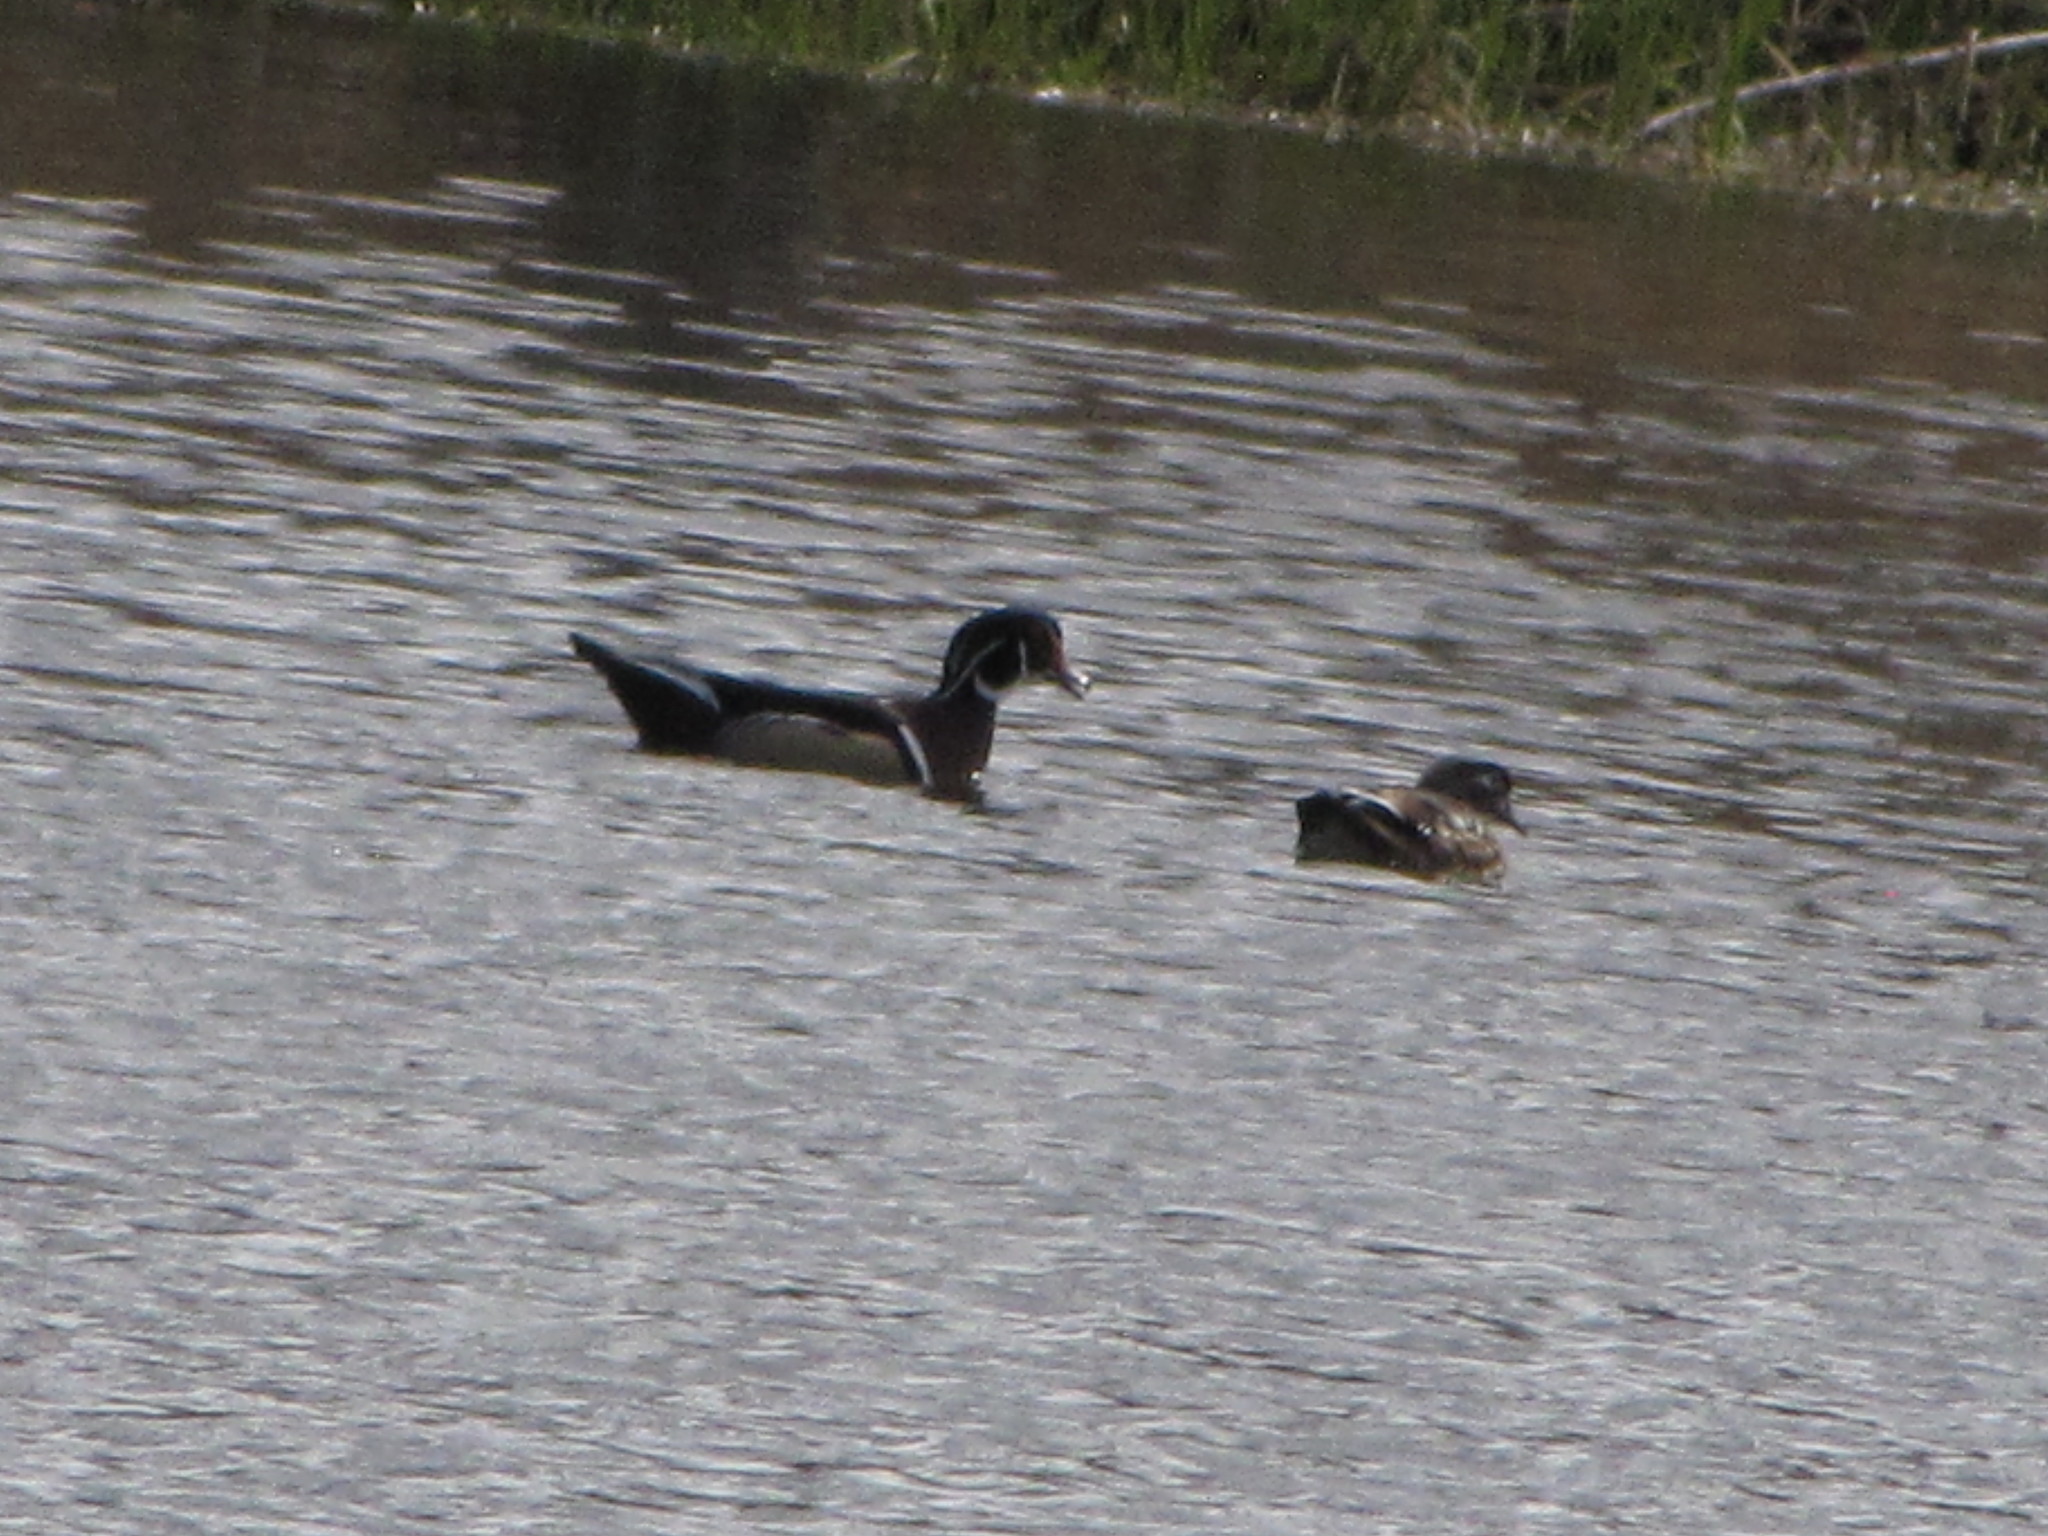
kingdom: Animalia
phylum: Chordata
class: Aves
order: Anseriformes
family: Anatidae
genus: Aix
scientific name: Aix sponsa
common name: Wood duck
